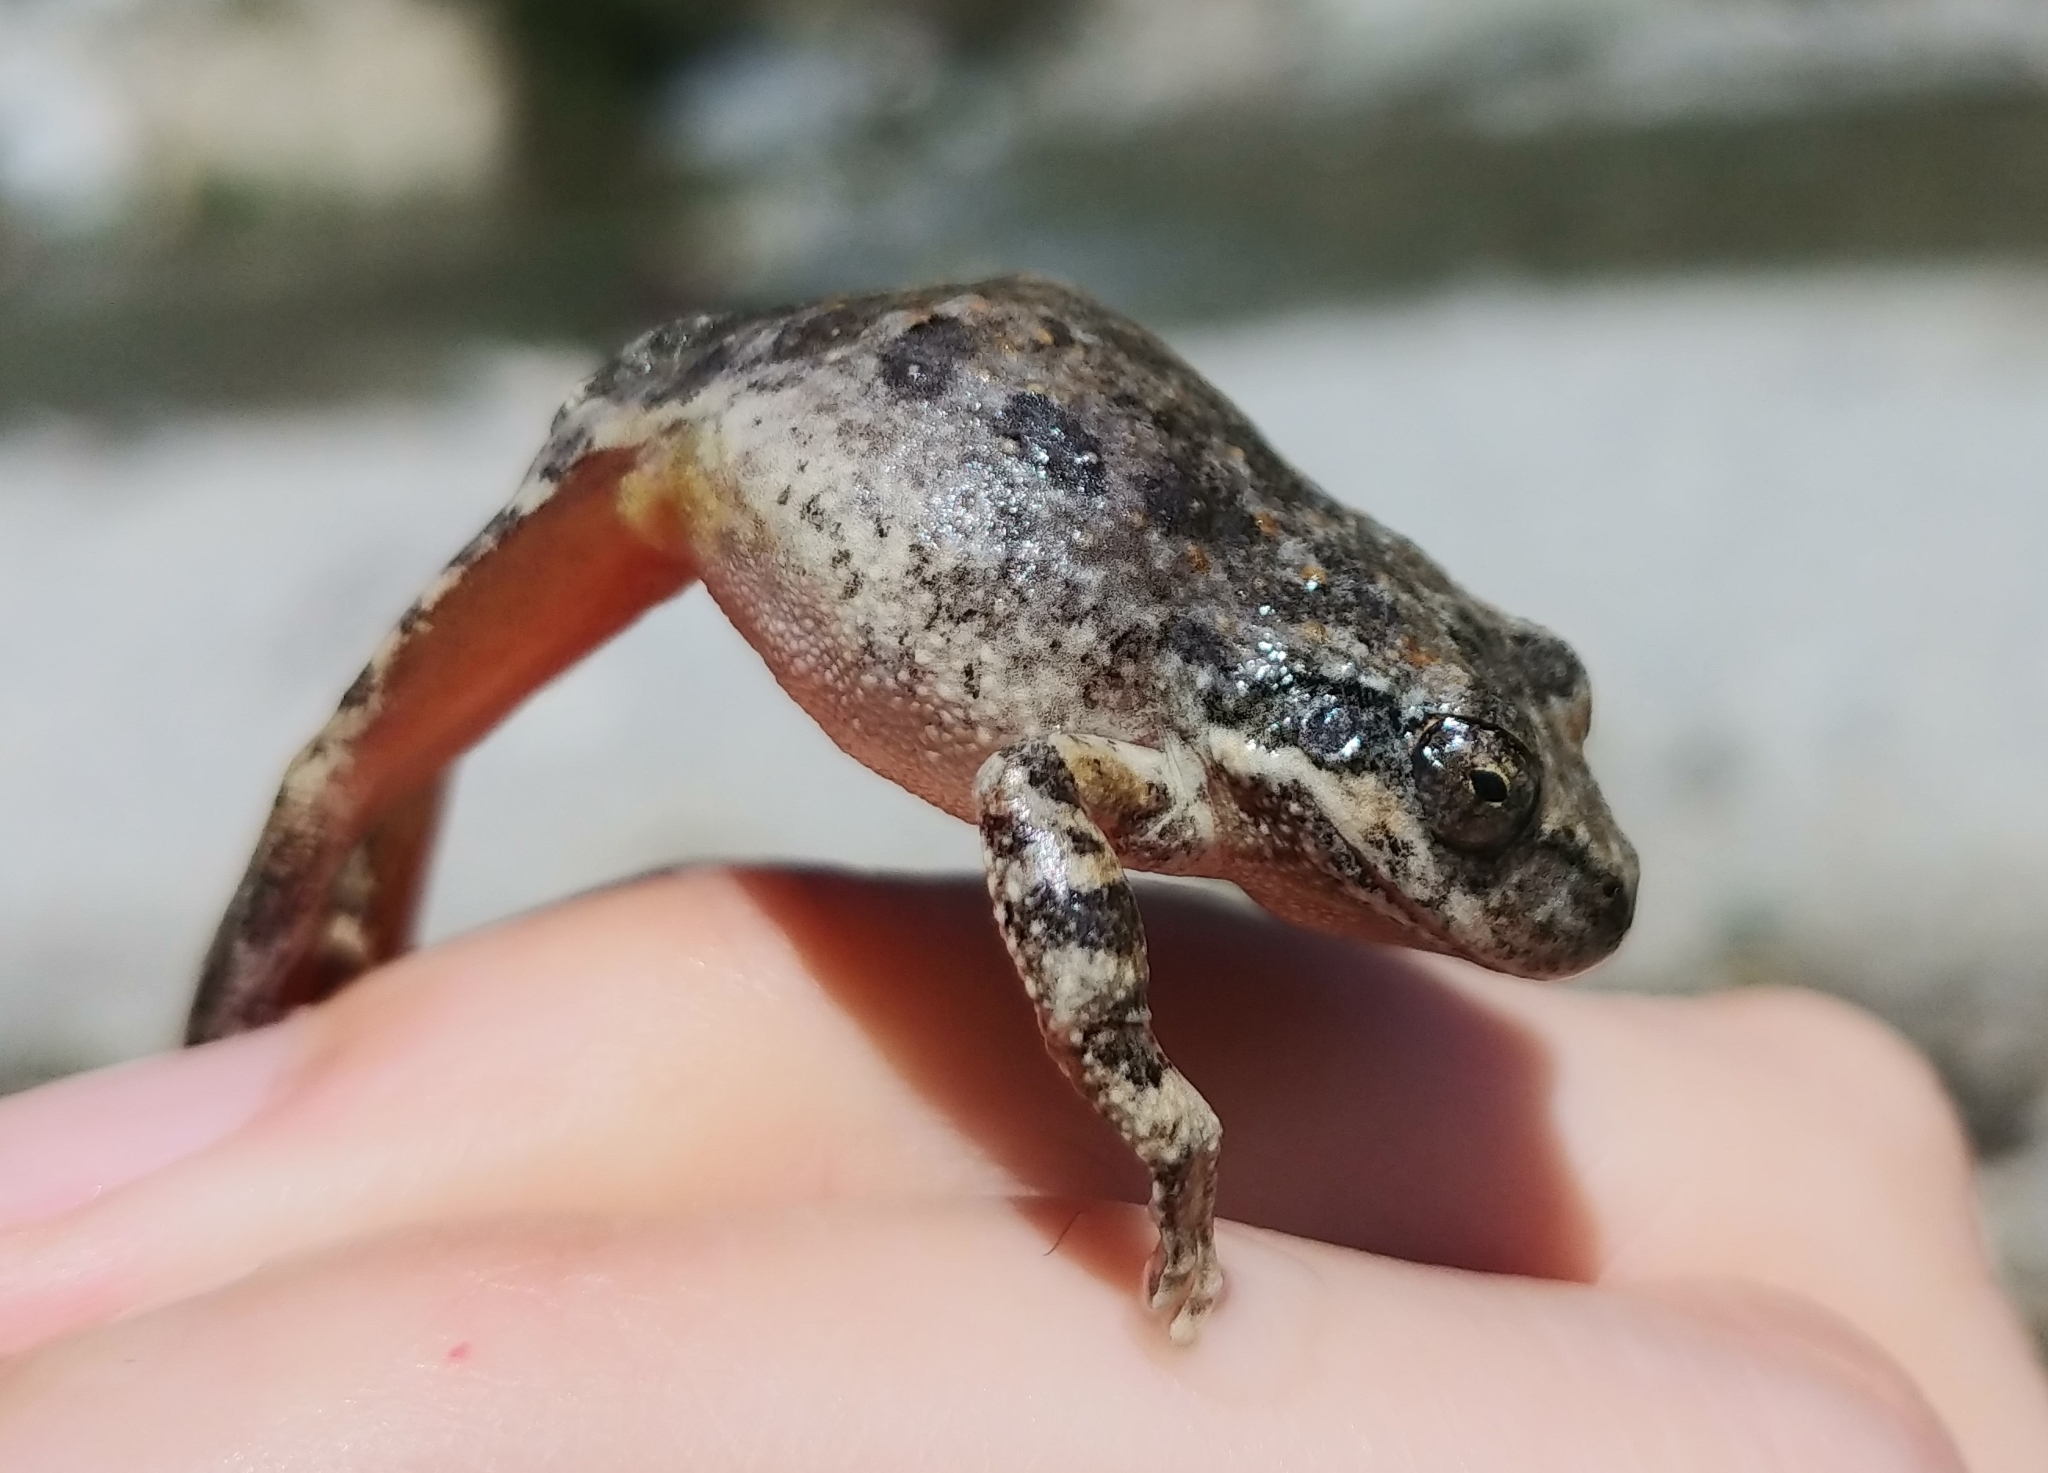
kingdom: Animalia
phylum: Chordata
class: Amphibia
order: Anura
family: Hylidae
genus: Pseudacris
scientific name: Pseudacris cadaverina
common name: California chorus frog
